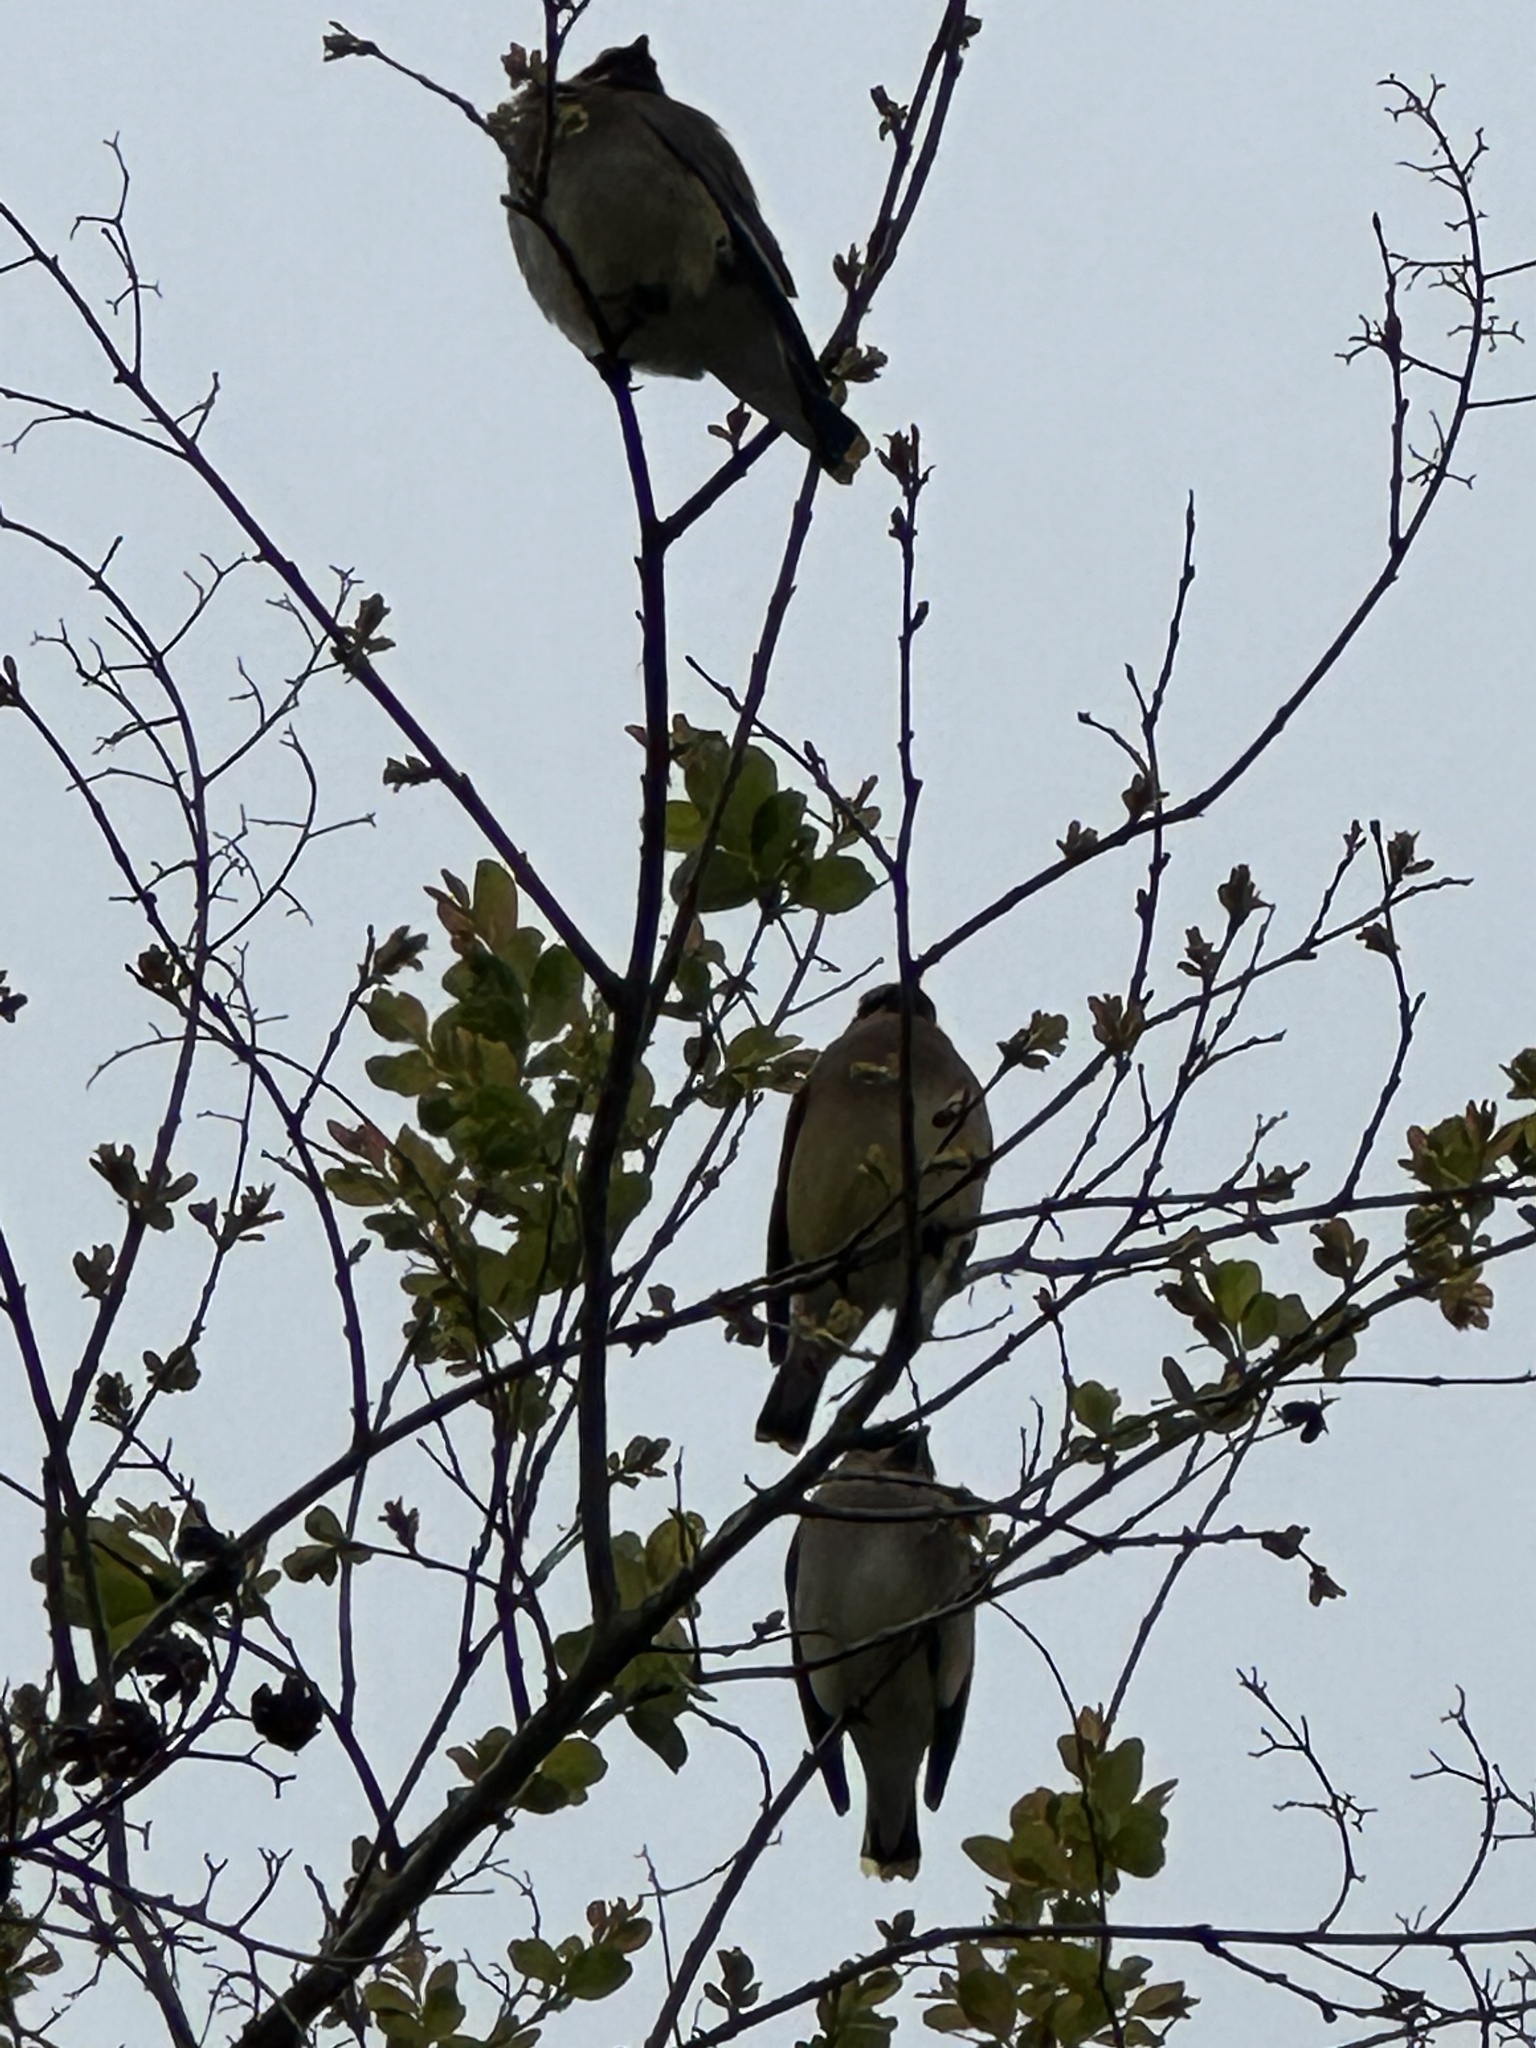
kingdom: Animalia
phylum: Chordata
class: Aves
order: Passeriformes
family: Bombycillidae
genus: Bombycilla
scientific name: Bombycilla cedrorum
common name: Cedar waxwing
